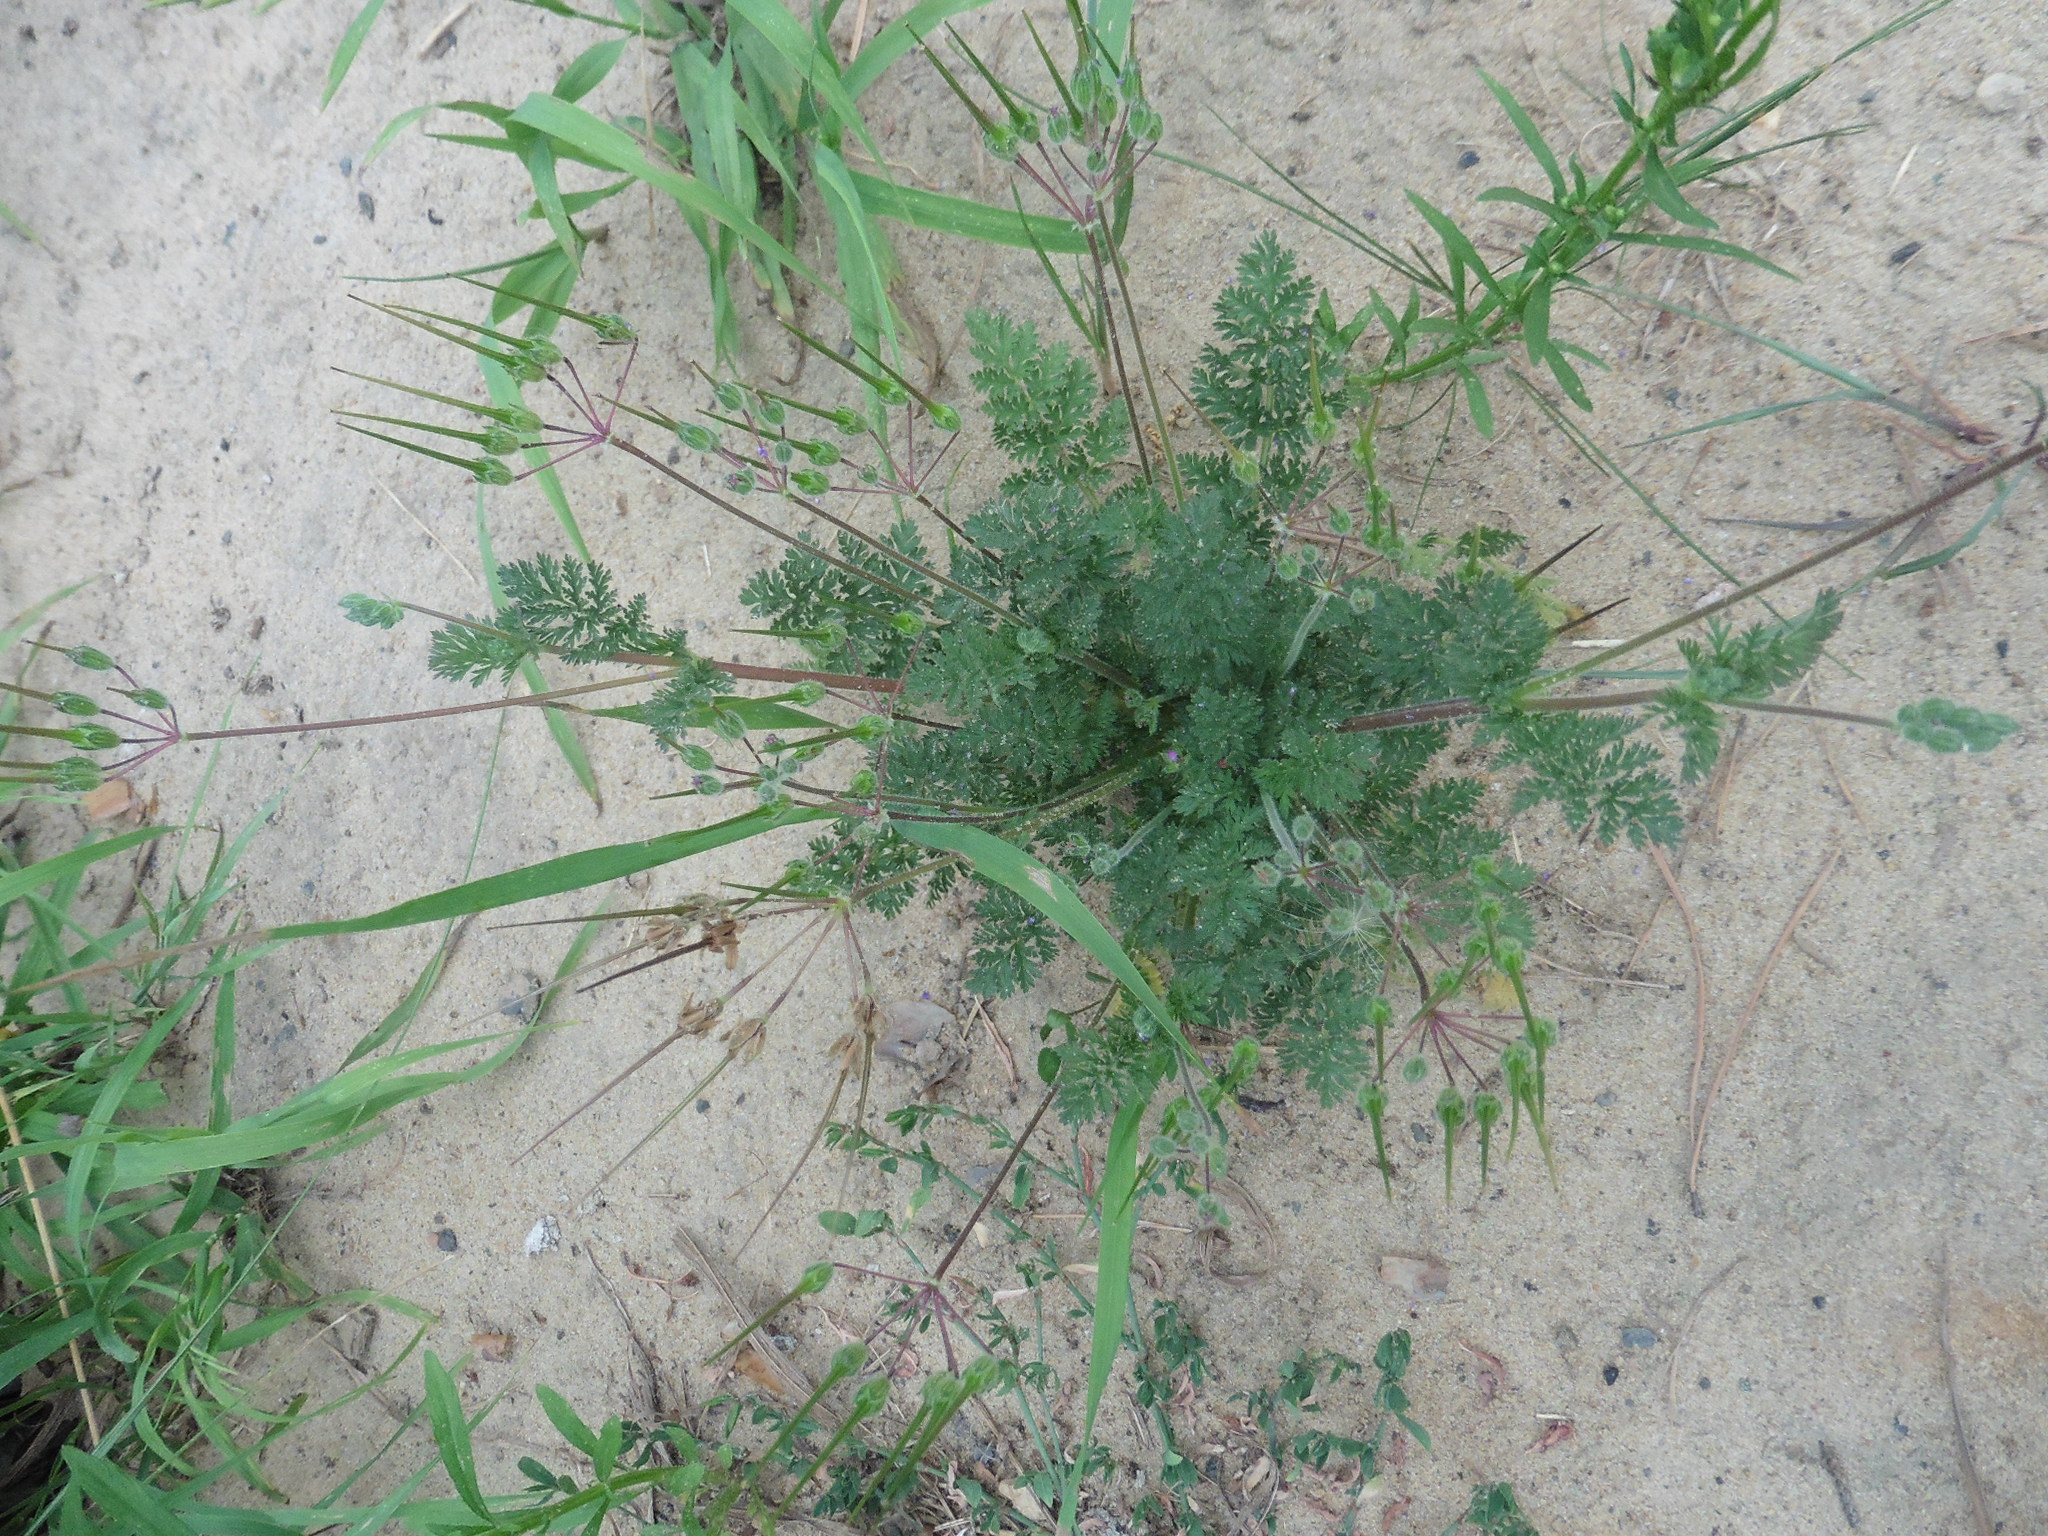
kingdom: Plantae
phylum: Tracheophyta
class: Magnoliopsida
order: Geraniales
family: Geraniaceae
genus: Erodium
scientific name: Erodium cicutarium
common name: Common stork's-bill
